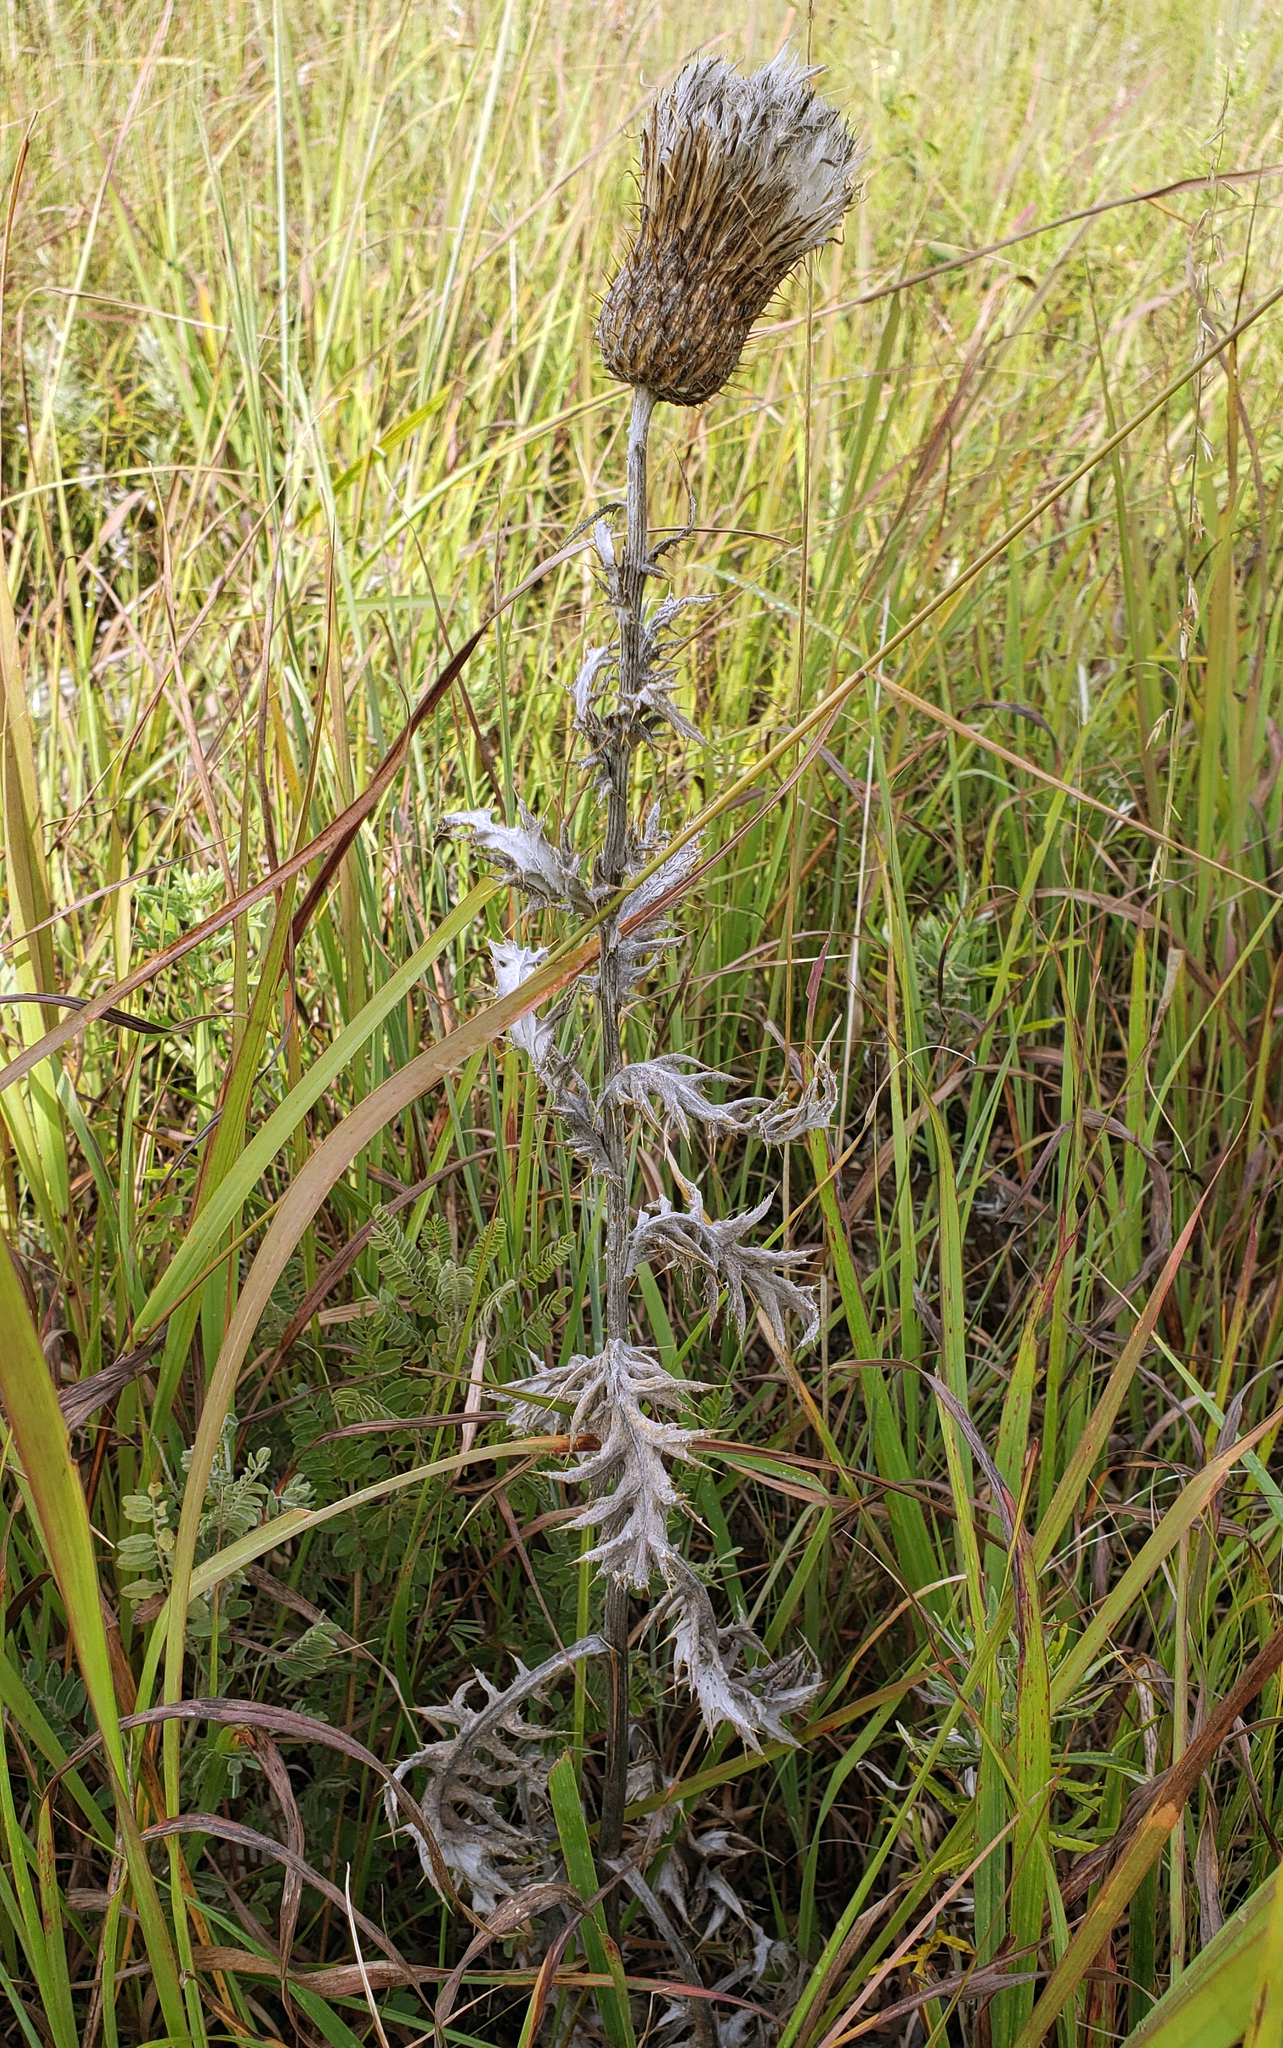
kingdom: Plantae
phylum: Tracheophyta
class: Magnoliopsida
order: Asterales
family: Asteraceae
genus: Cirsium
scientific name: Cirsium undulatum
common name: Pasture thistle
